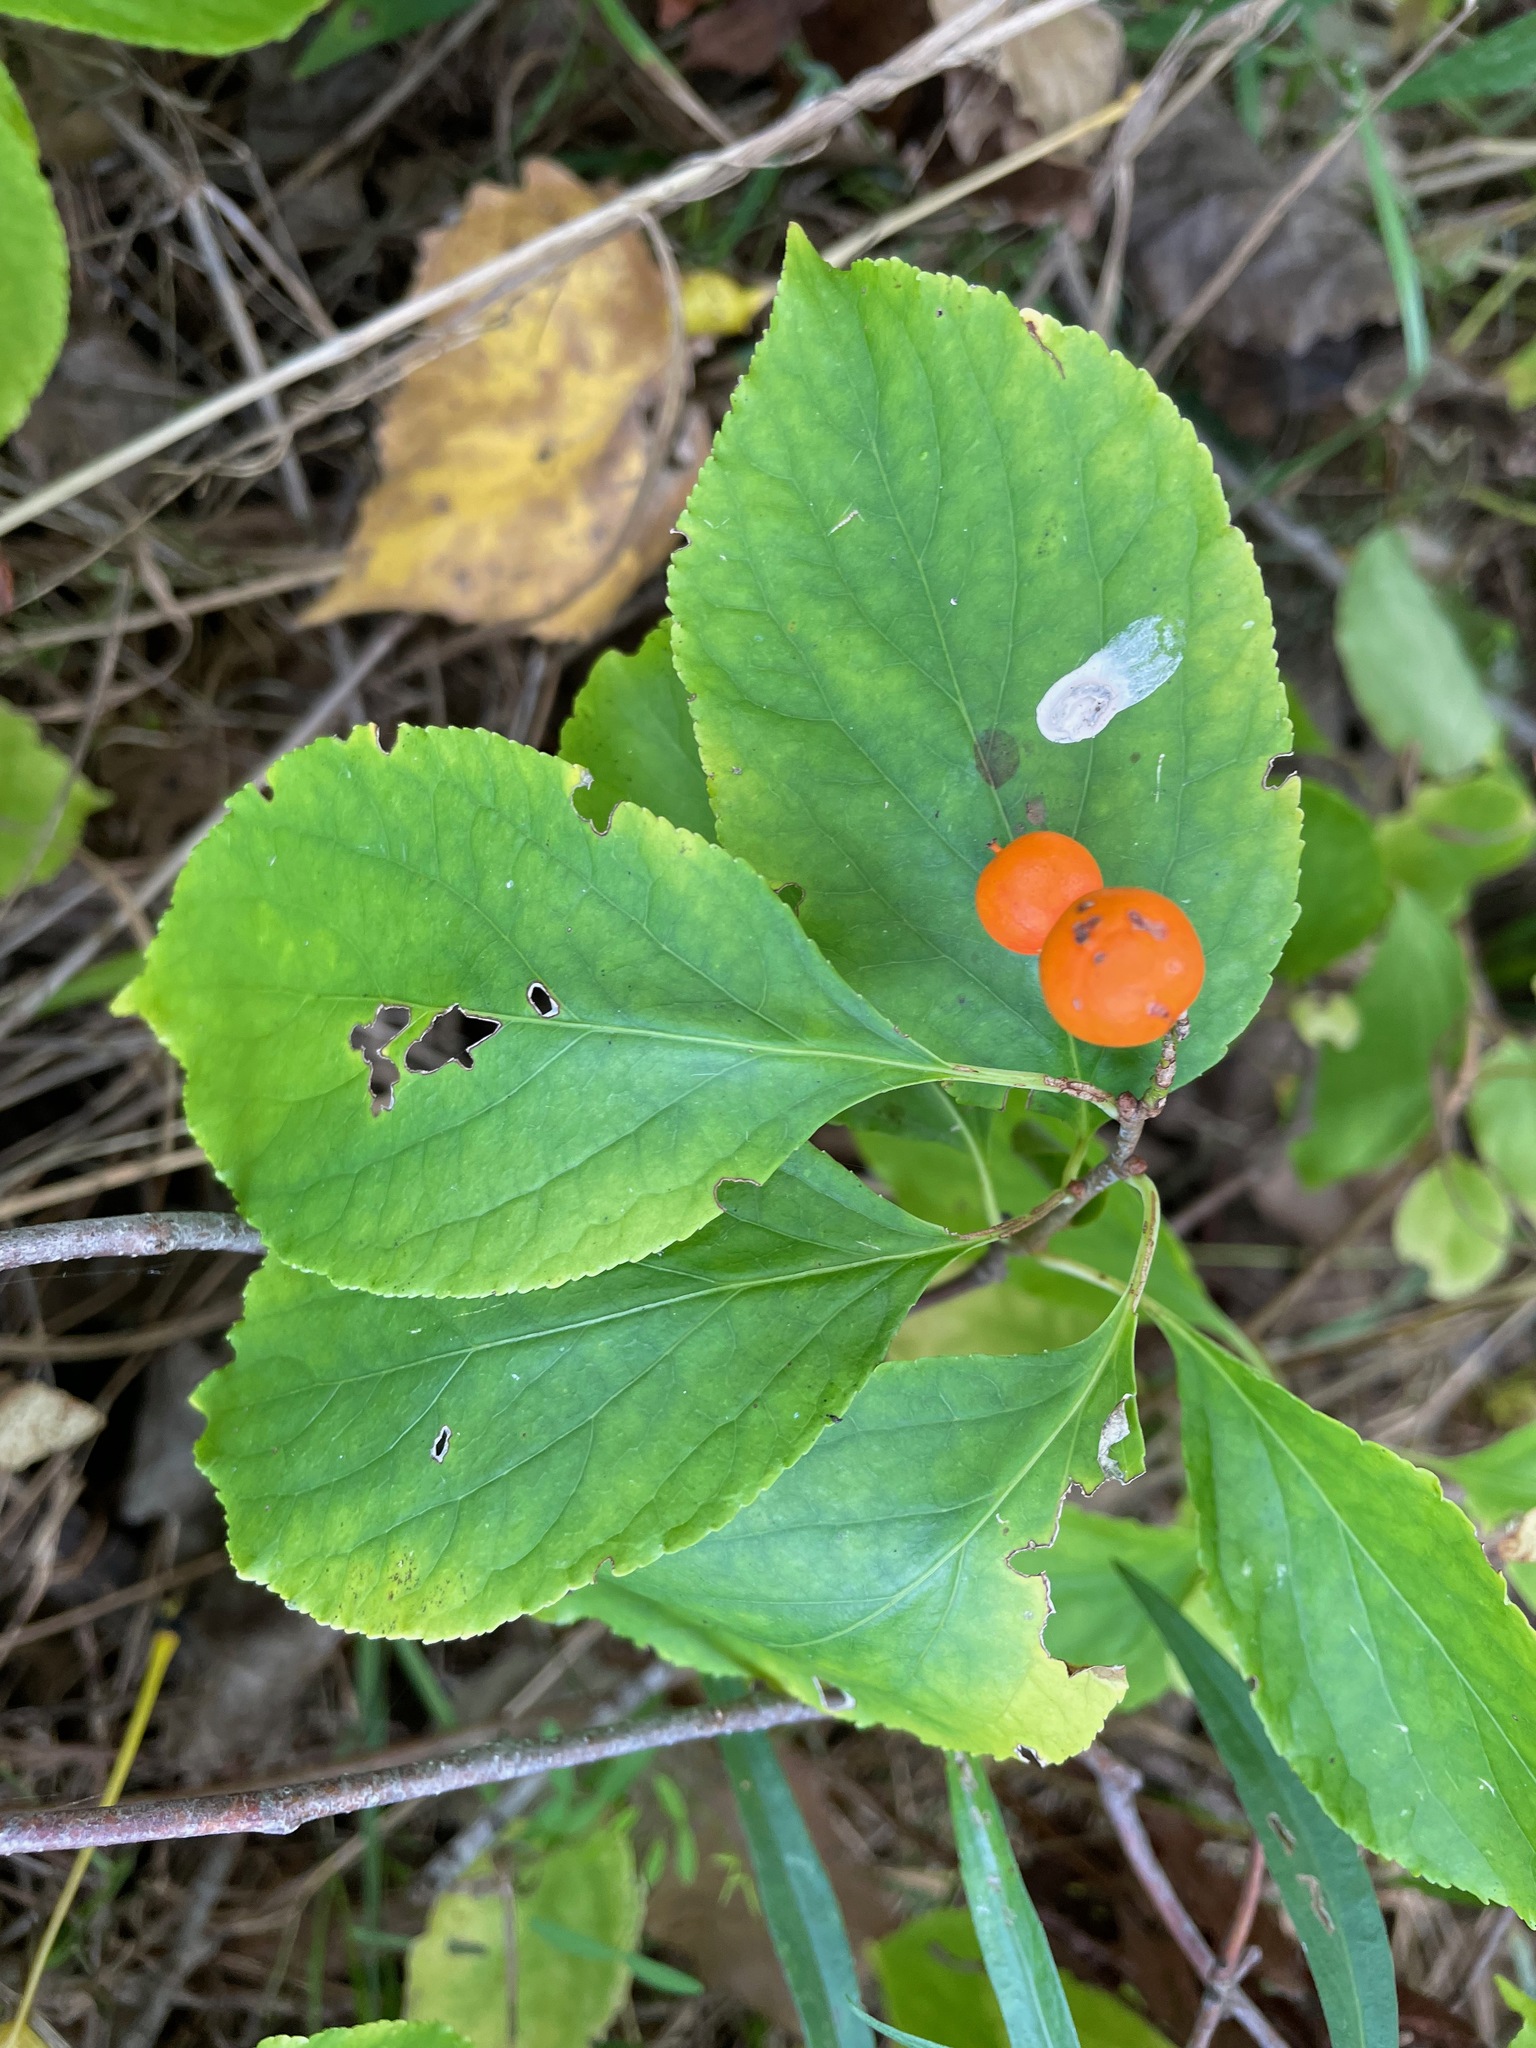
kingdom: Plantae
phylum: Tracheophyta
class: Magnoliopsida
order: Celastrales
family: Celastraceae
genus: Celastrus
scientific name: Celastrus scandens
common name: American bittersweet
